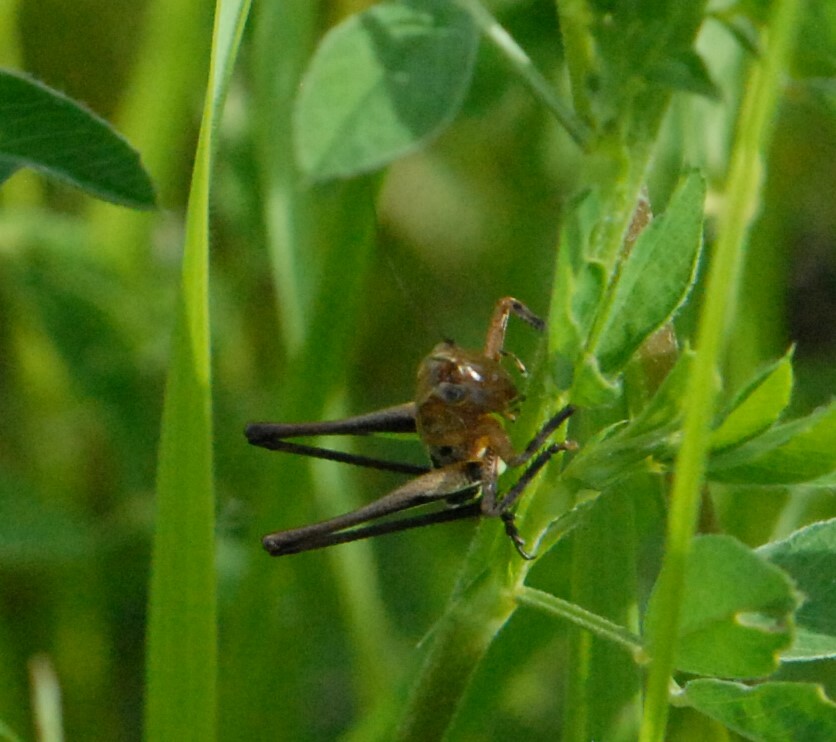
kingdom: Animalia
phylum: Arthropoda
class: Insecta
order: Orthoptera
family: Tettigoniidae
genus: Decticus
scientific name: Decticus albifrons
